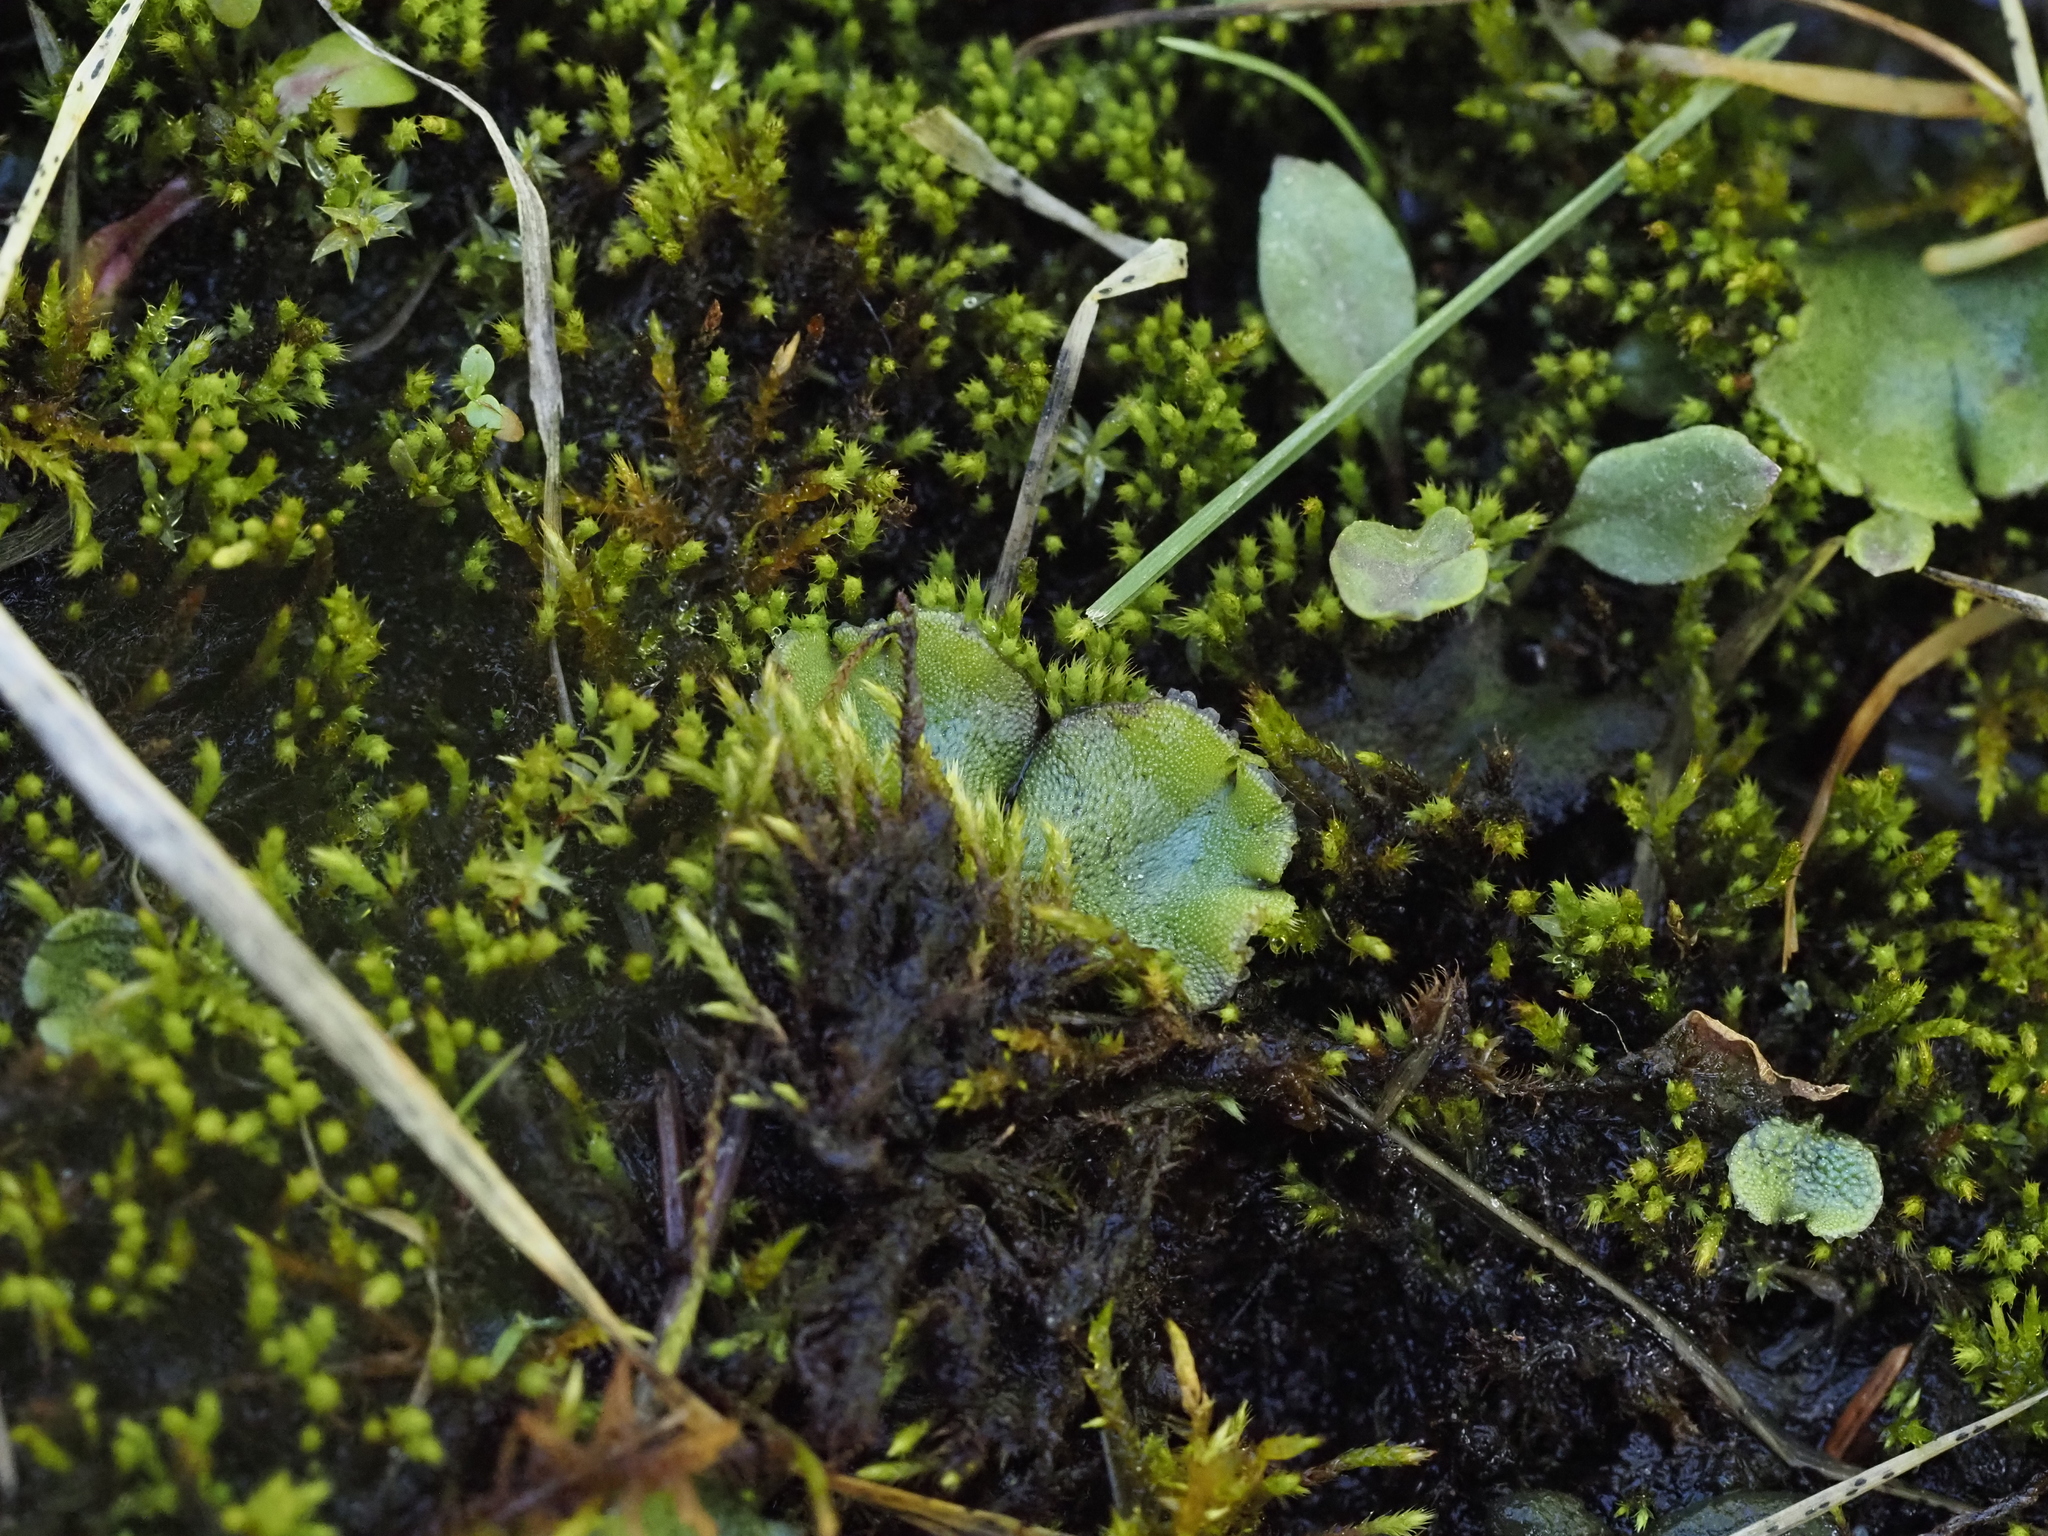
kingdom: Plantae
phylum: Marchantiophyta
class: Marchantiopsida
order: Marchantiales
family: Marchantiaceae
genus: Marchantia
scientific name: Marchantia polymorpha
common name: Common liverwort
